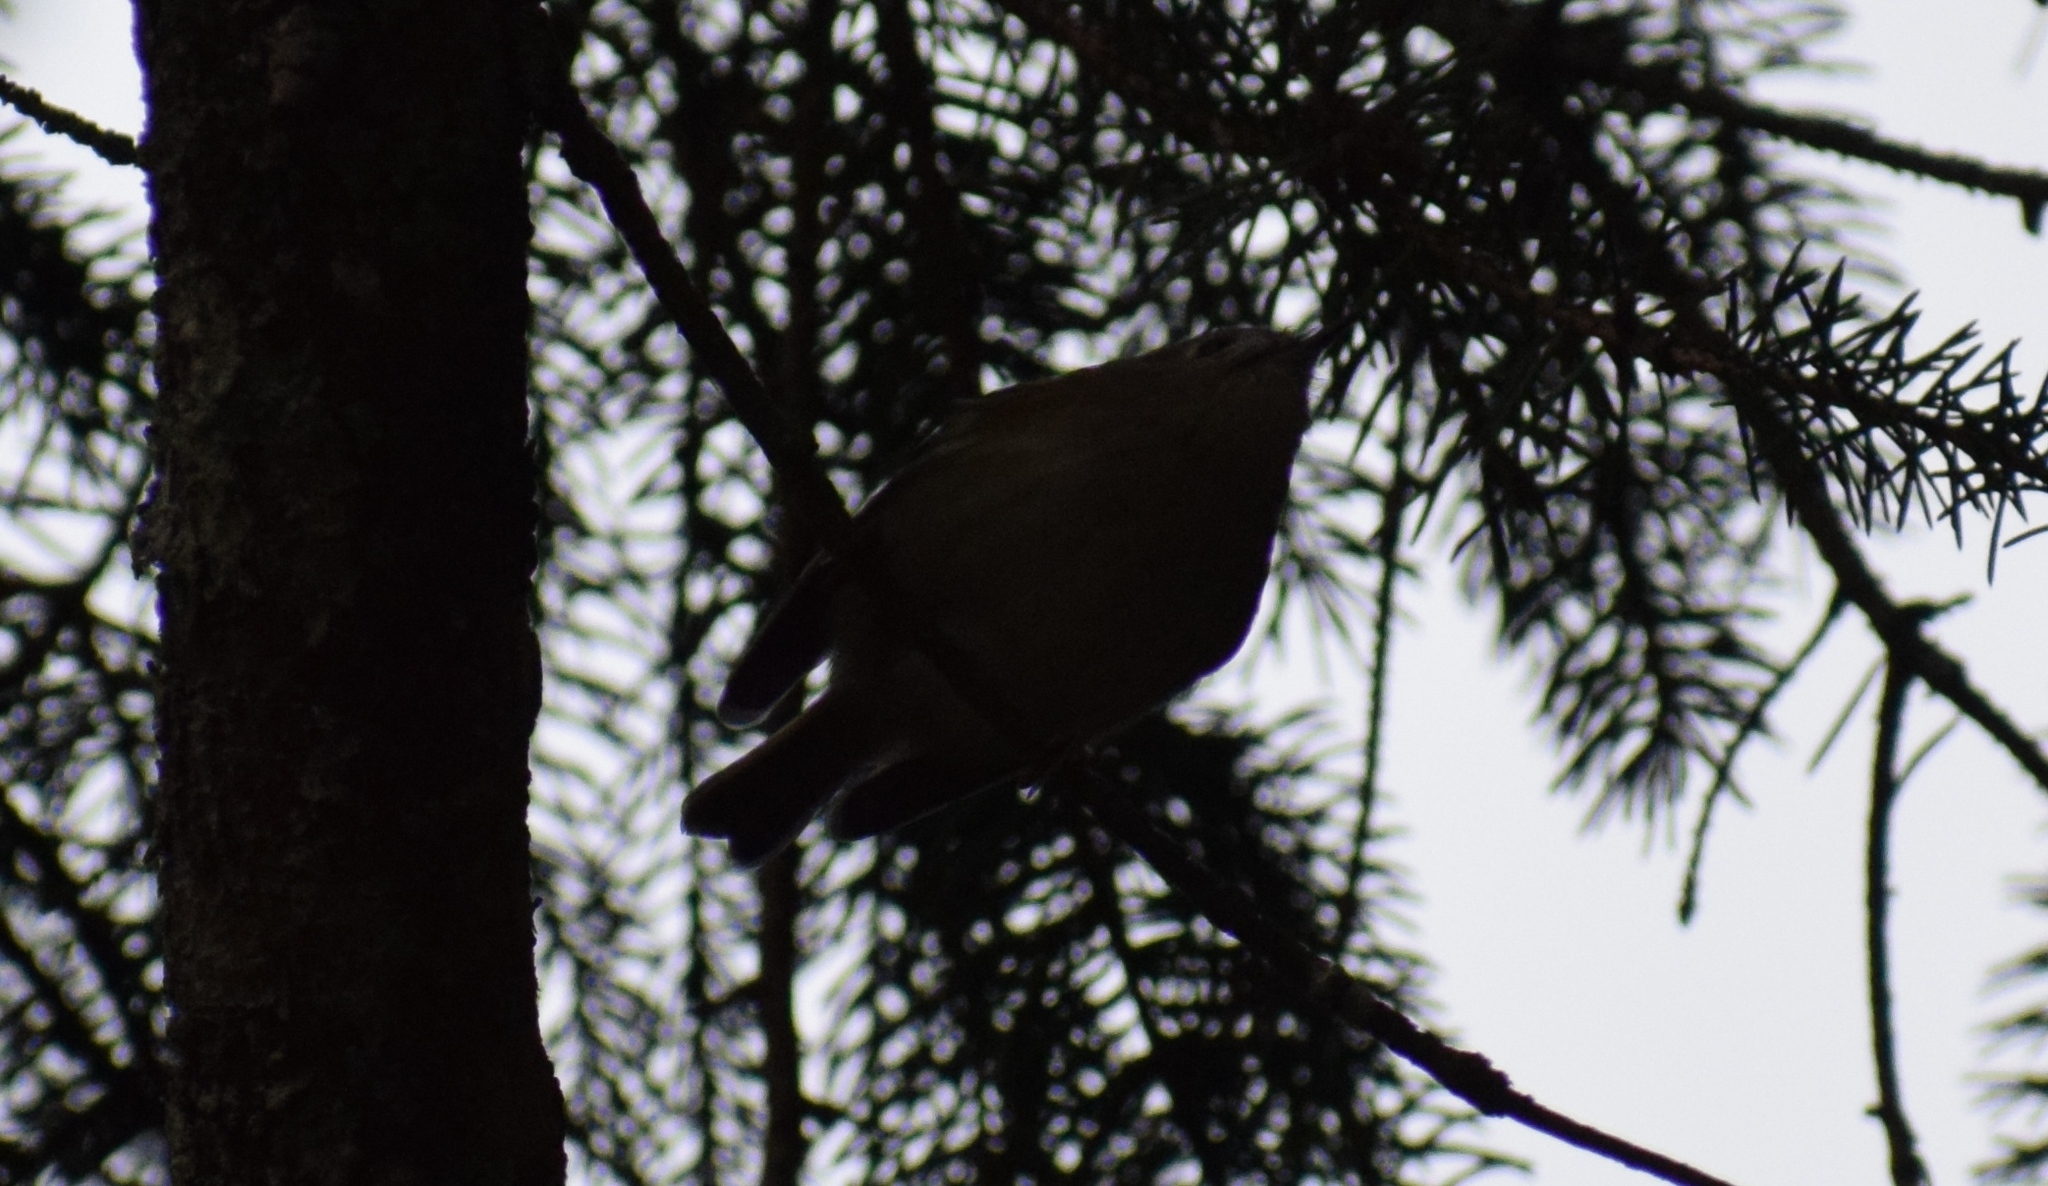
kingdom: Animalia
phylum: Chordata
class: Aves
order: Passeriformes
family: Regulidae
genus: Regulus
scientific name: Regulus regulus
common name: Goldcrest
